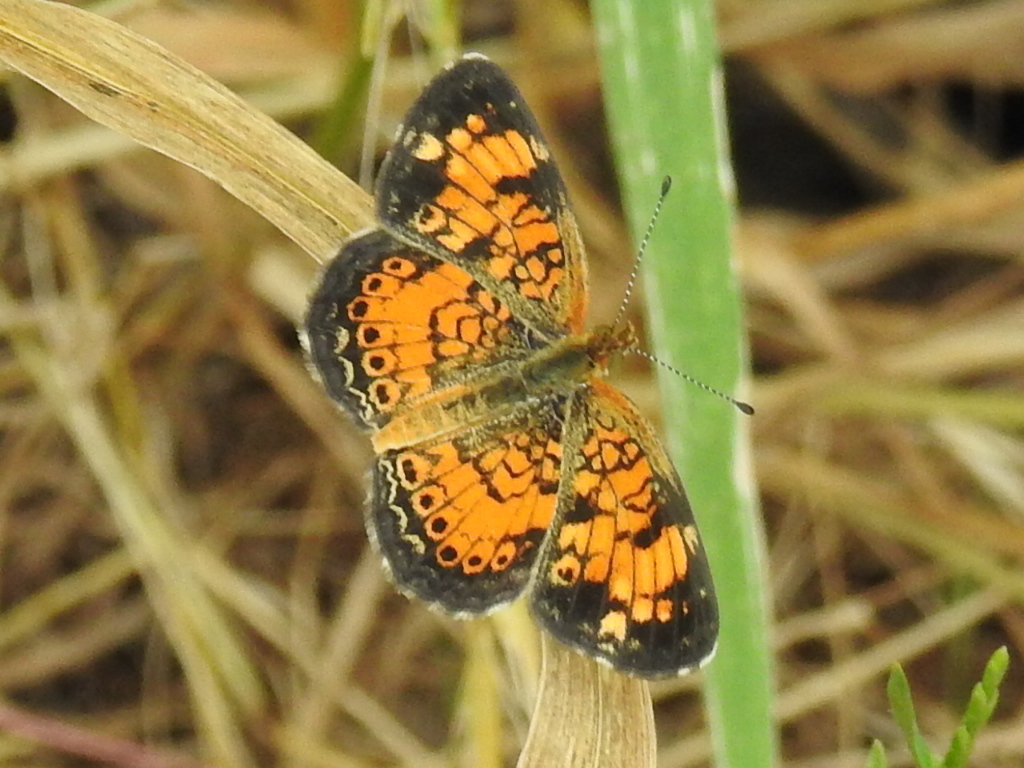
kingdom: Animalia
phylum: Arthropoda
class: Insecta
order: Lepidoptera
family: Nymphalidae
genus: Phyciodes
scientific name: Phyciodes tharos
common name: Pearl crescent
